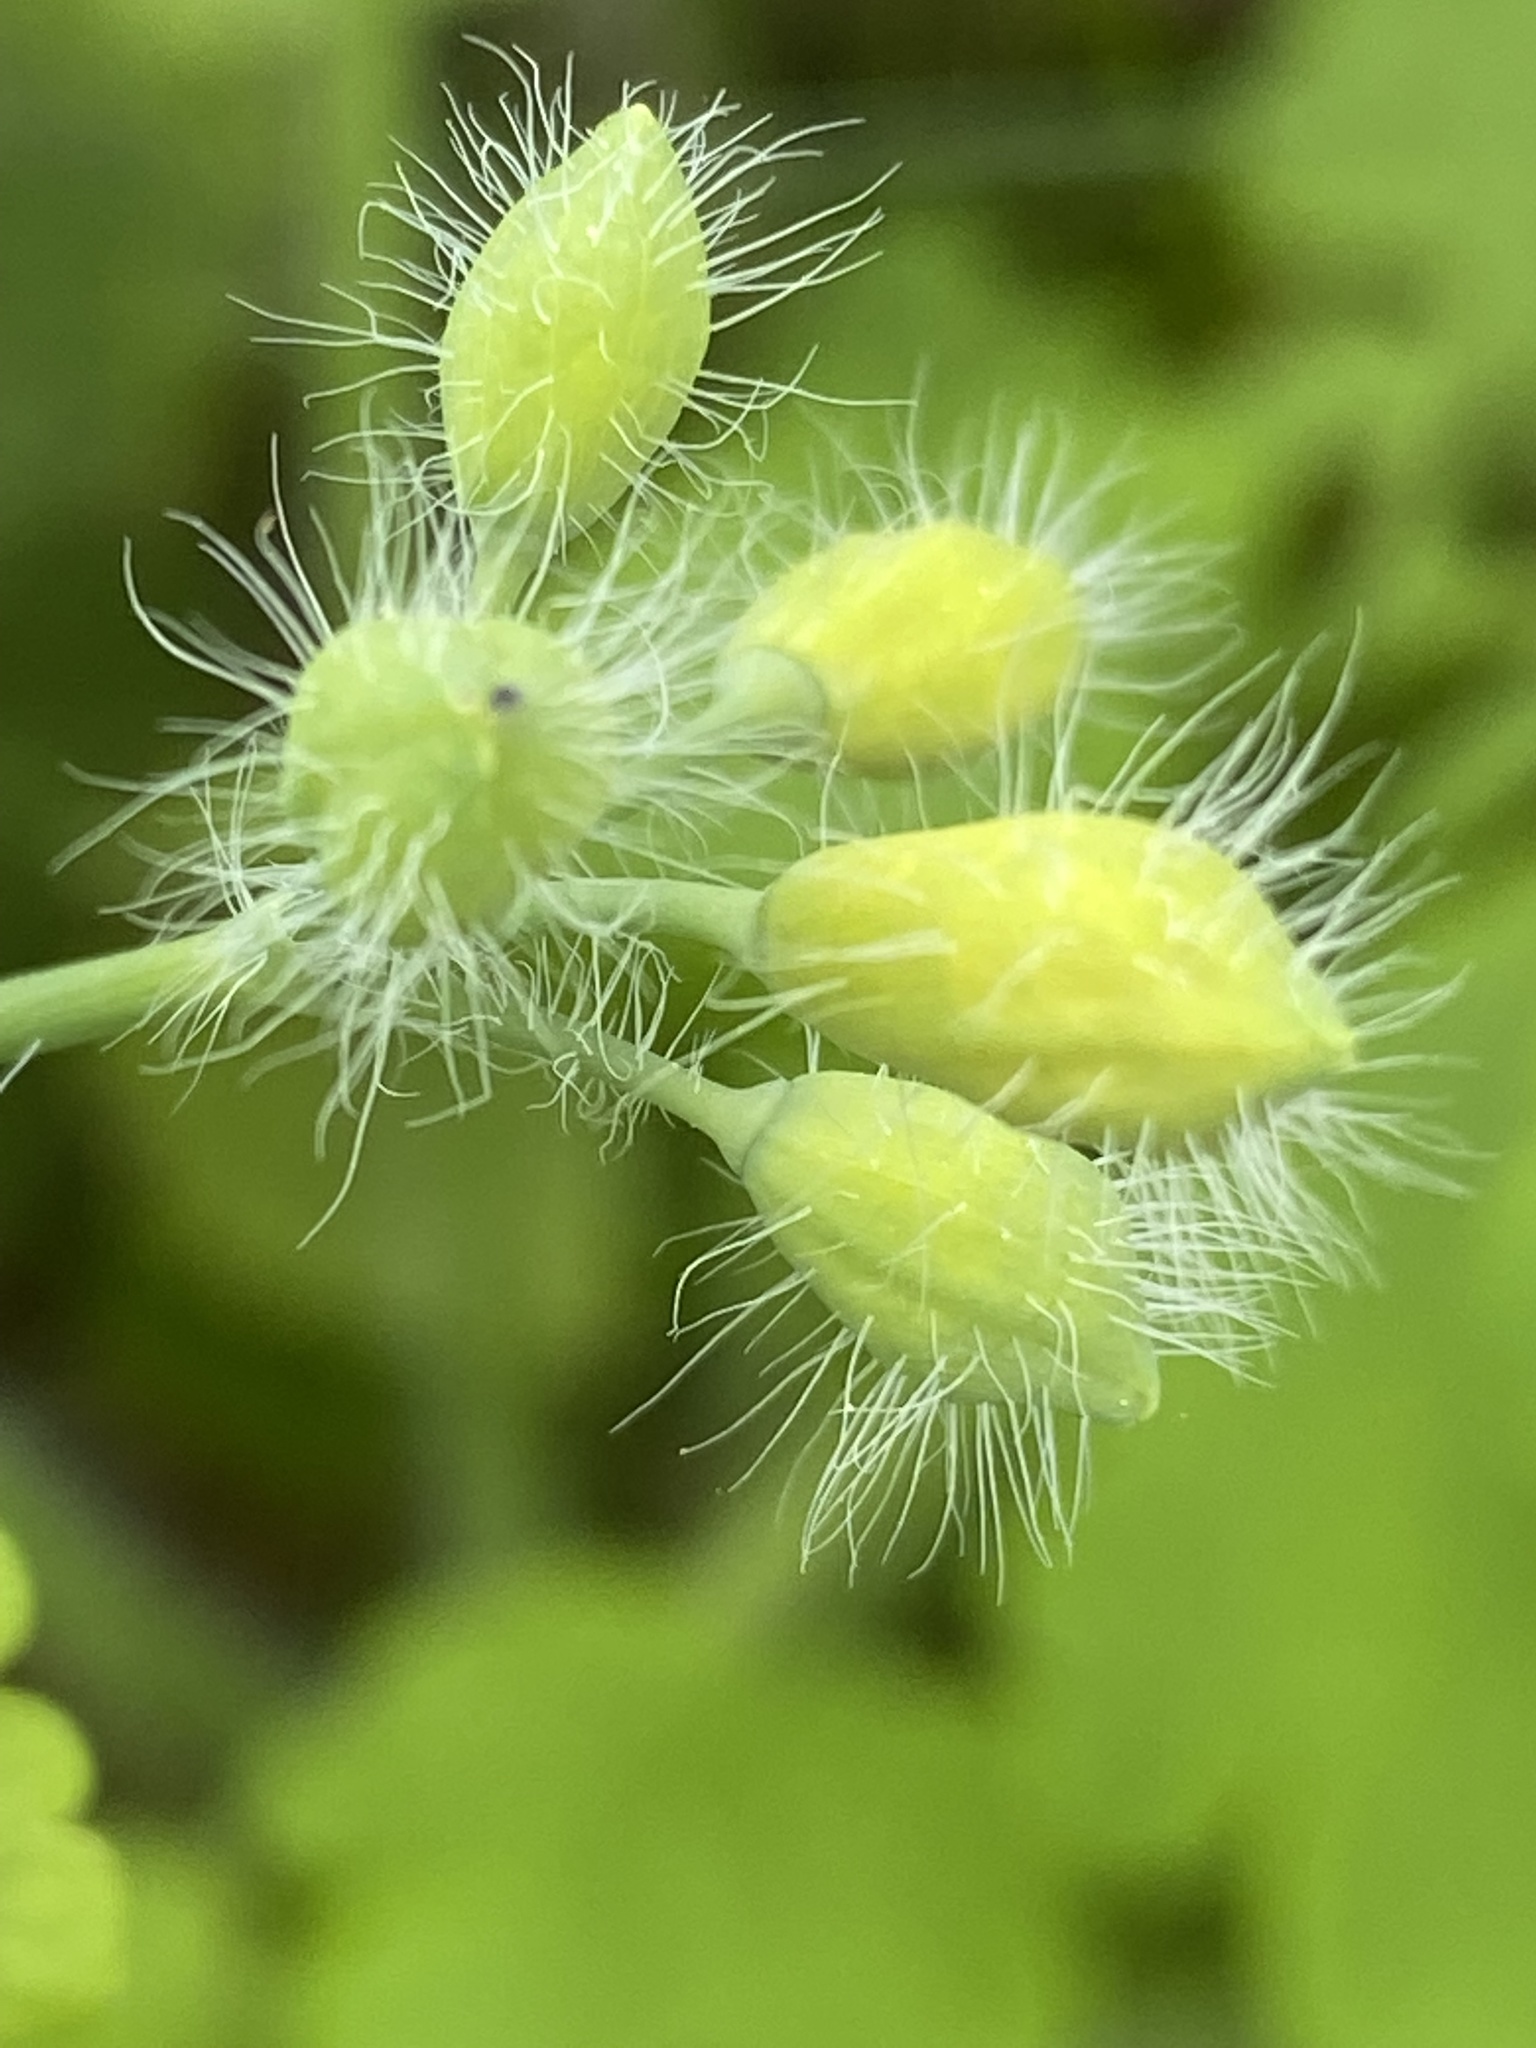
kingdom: Plantae
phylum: Tracheophyta
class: Magnoliopsida
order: Ranunculales
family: Papaveraceae
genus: Chelidonium
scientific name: Chelidonium majus
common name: Greater celandine
